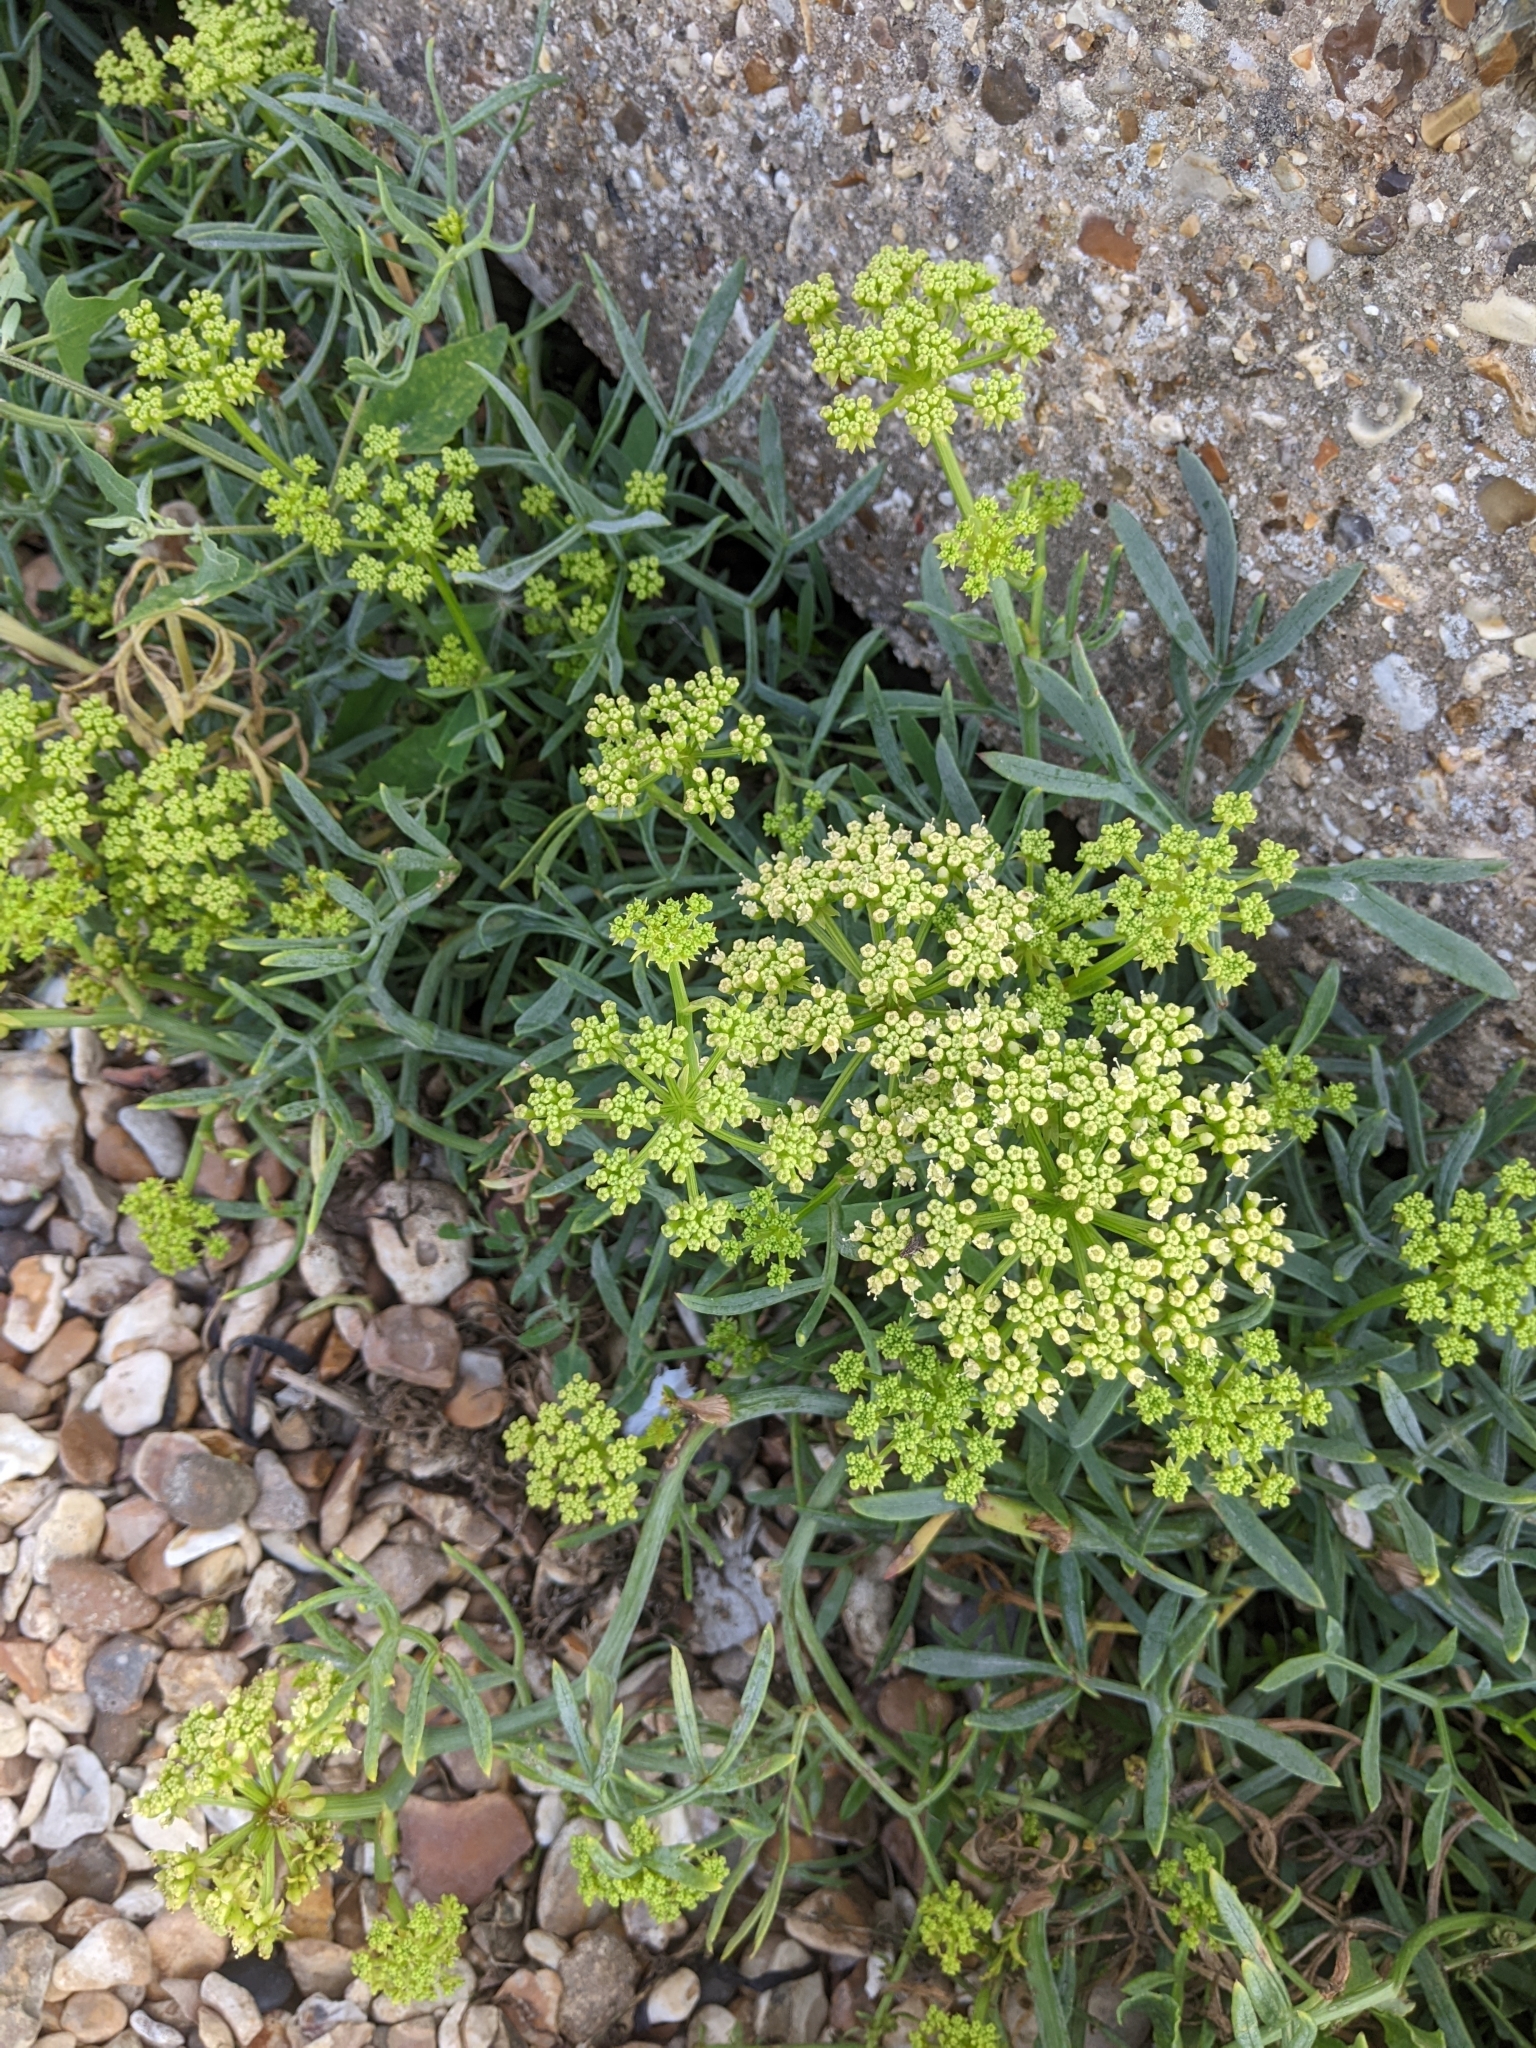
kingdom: Plantae
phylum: Tracheophyta
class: Magnoliopsida
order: Apiales
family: Apiaceae
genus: Crithmum
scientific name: Crithmum maritimum
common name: Rock samphire
